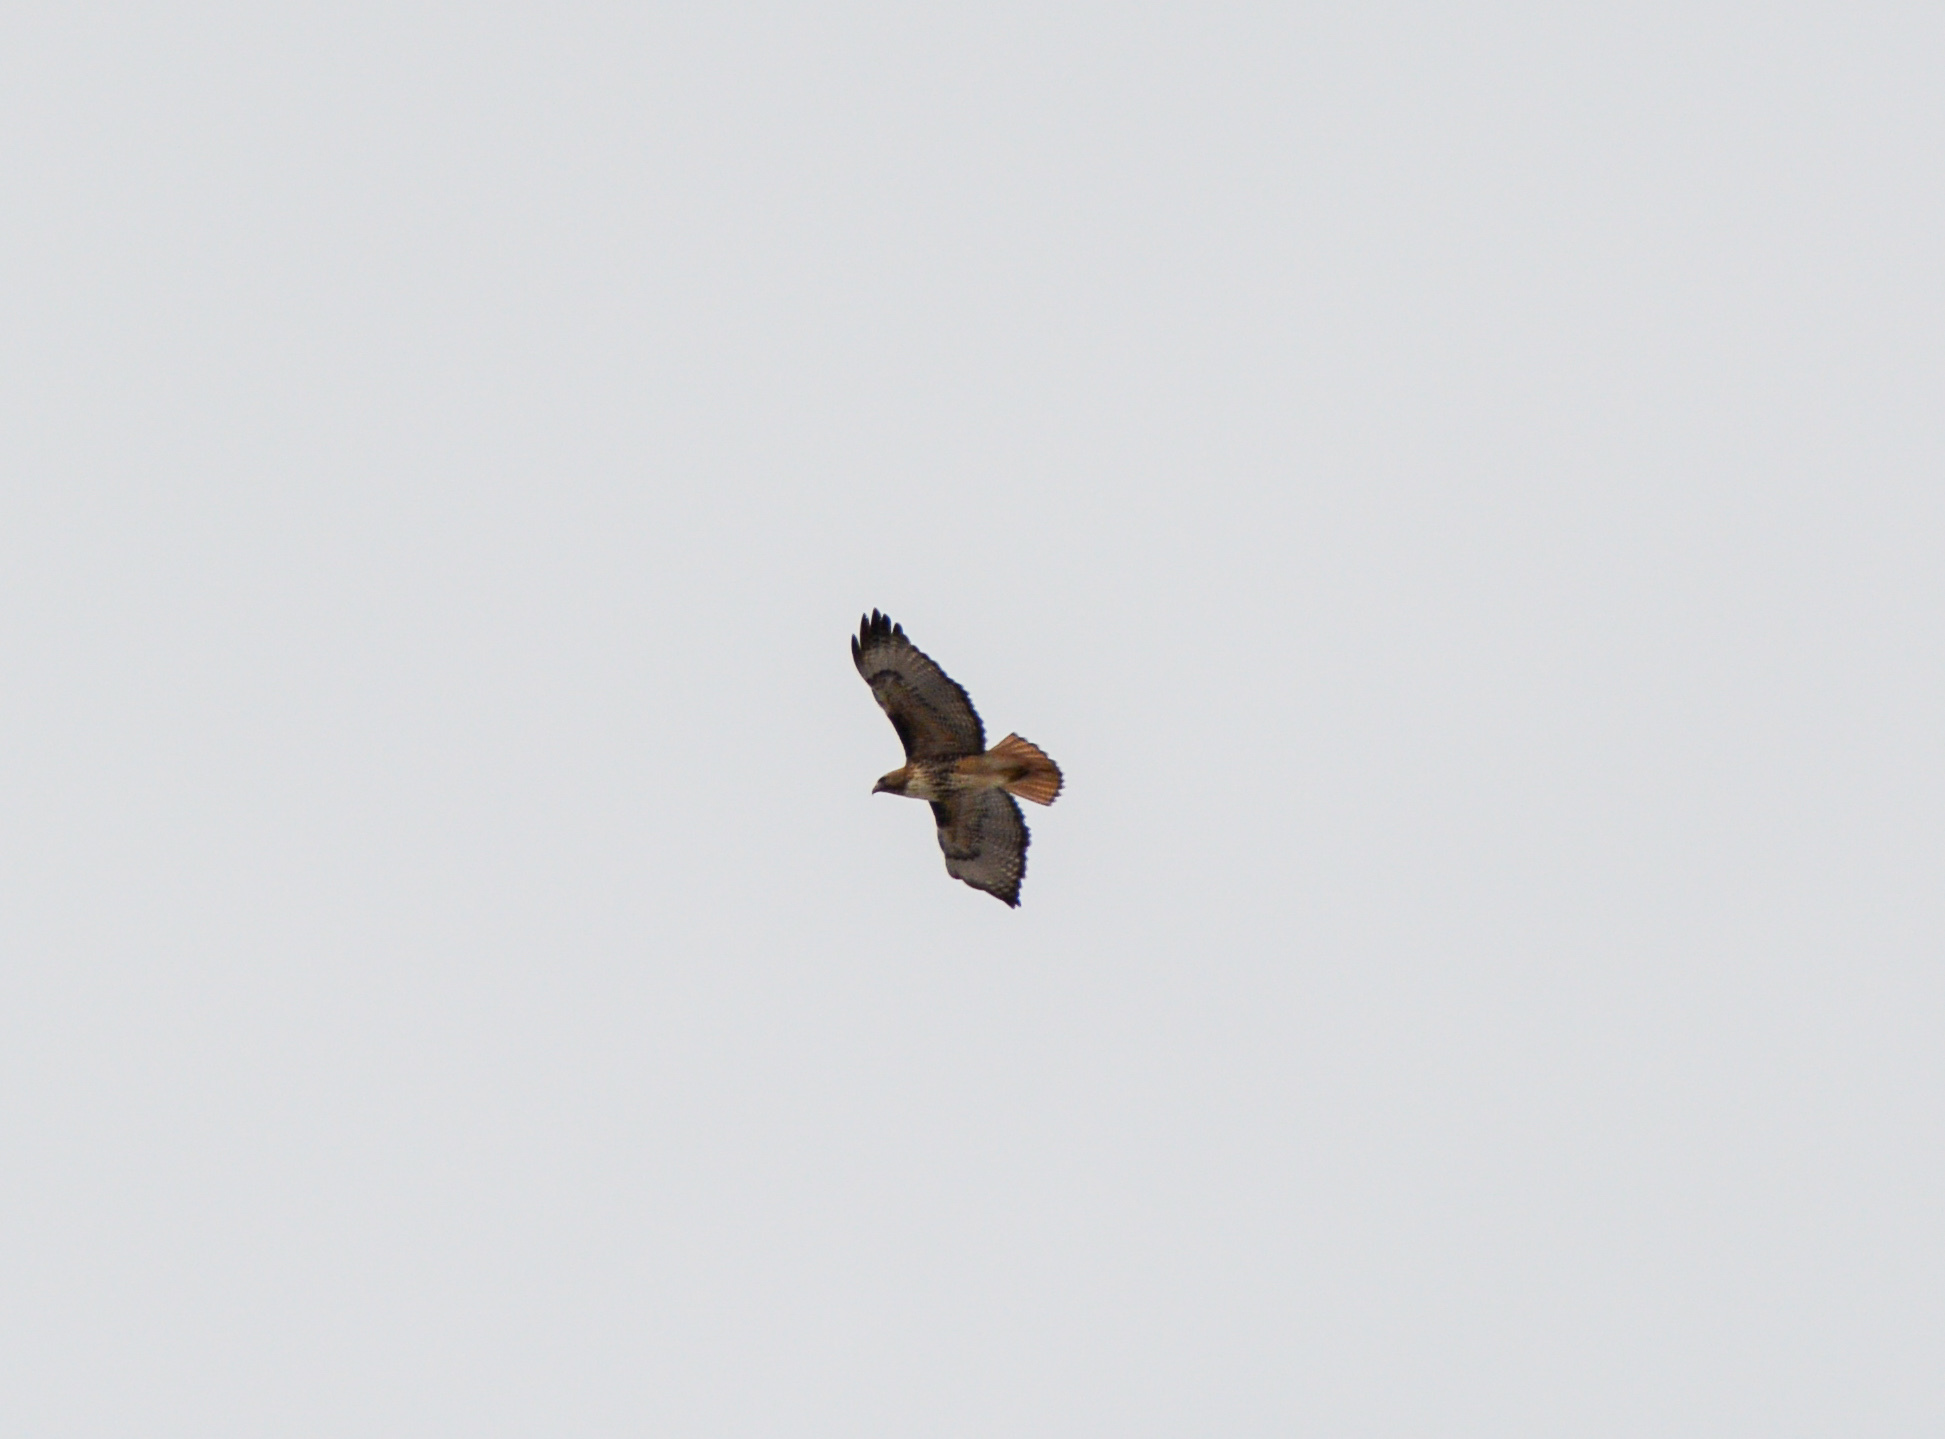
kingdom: Animalia
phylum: Chordata
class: Aves
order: Accipitriformes
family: Accipitridae
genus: Buteo
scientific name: Buteo jamaicensis
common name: Red-tailed hawk
